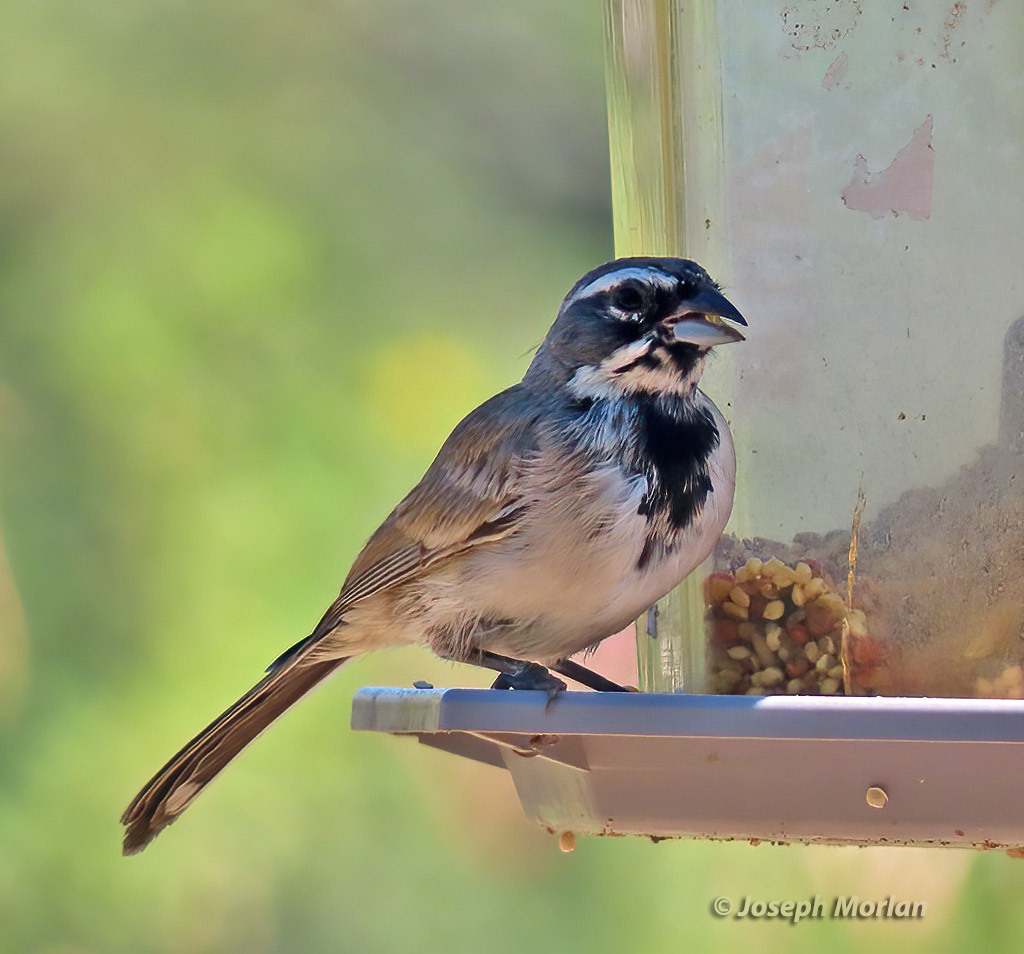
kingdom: Animalia
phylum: Chordata
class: Aves
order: Passeriformes
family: Passerellidae
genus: Amphispiza
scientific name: Amphispiza bilineata
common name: Black-throated sparrow
